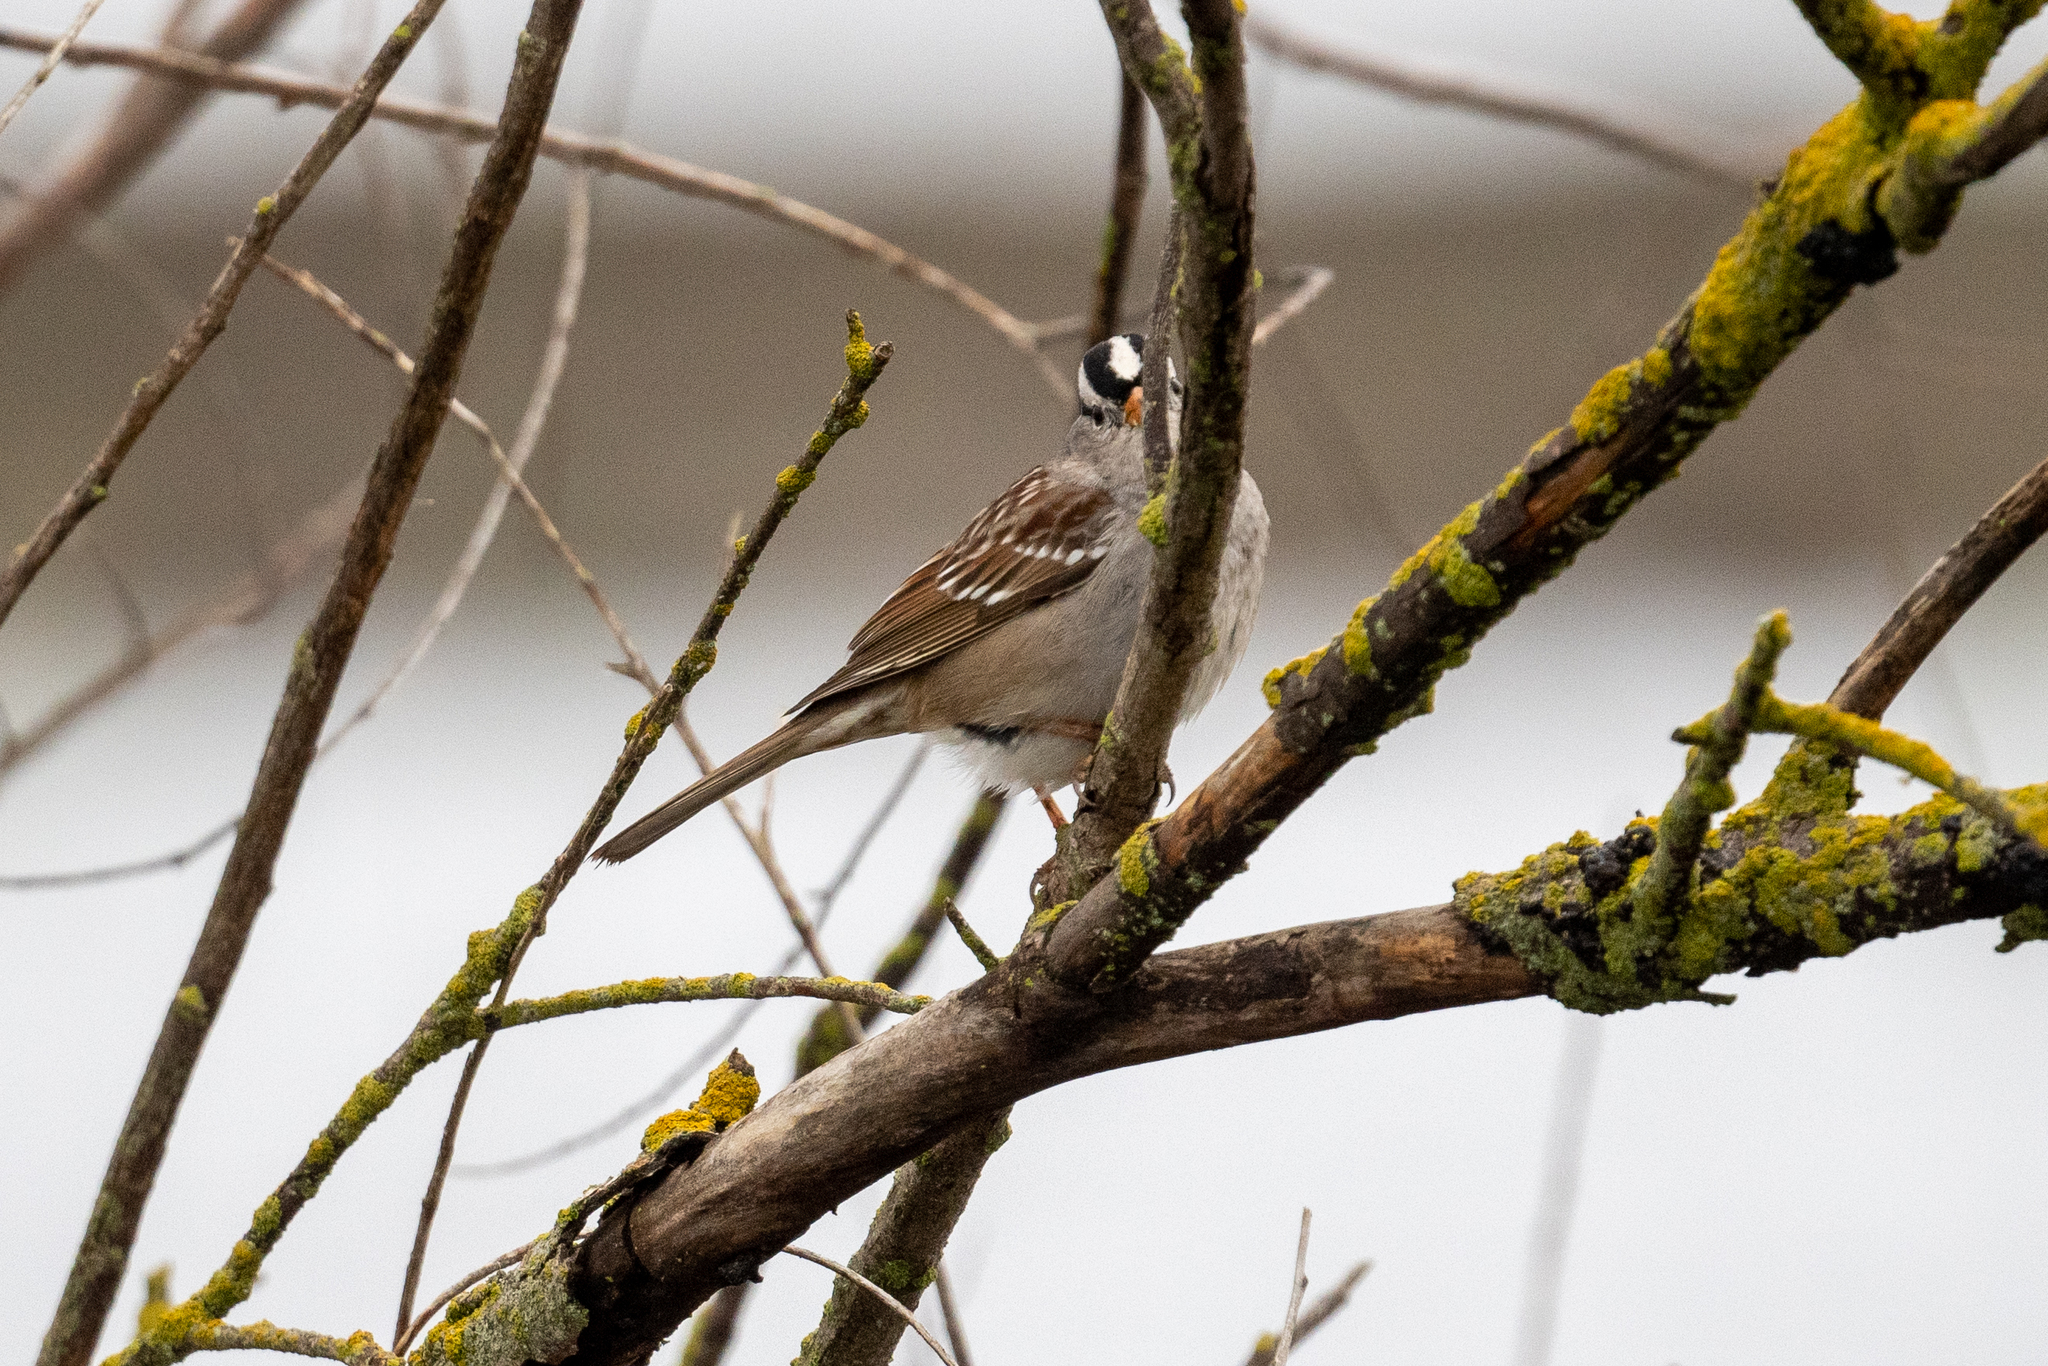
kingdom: Animalia
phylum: Chordata
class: Aves
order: Passeriformes
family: Passerellidae
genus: Zonotrichia
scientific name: Zonotrichia leucophrys
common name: White-crowned sparrow
